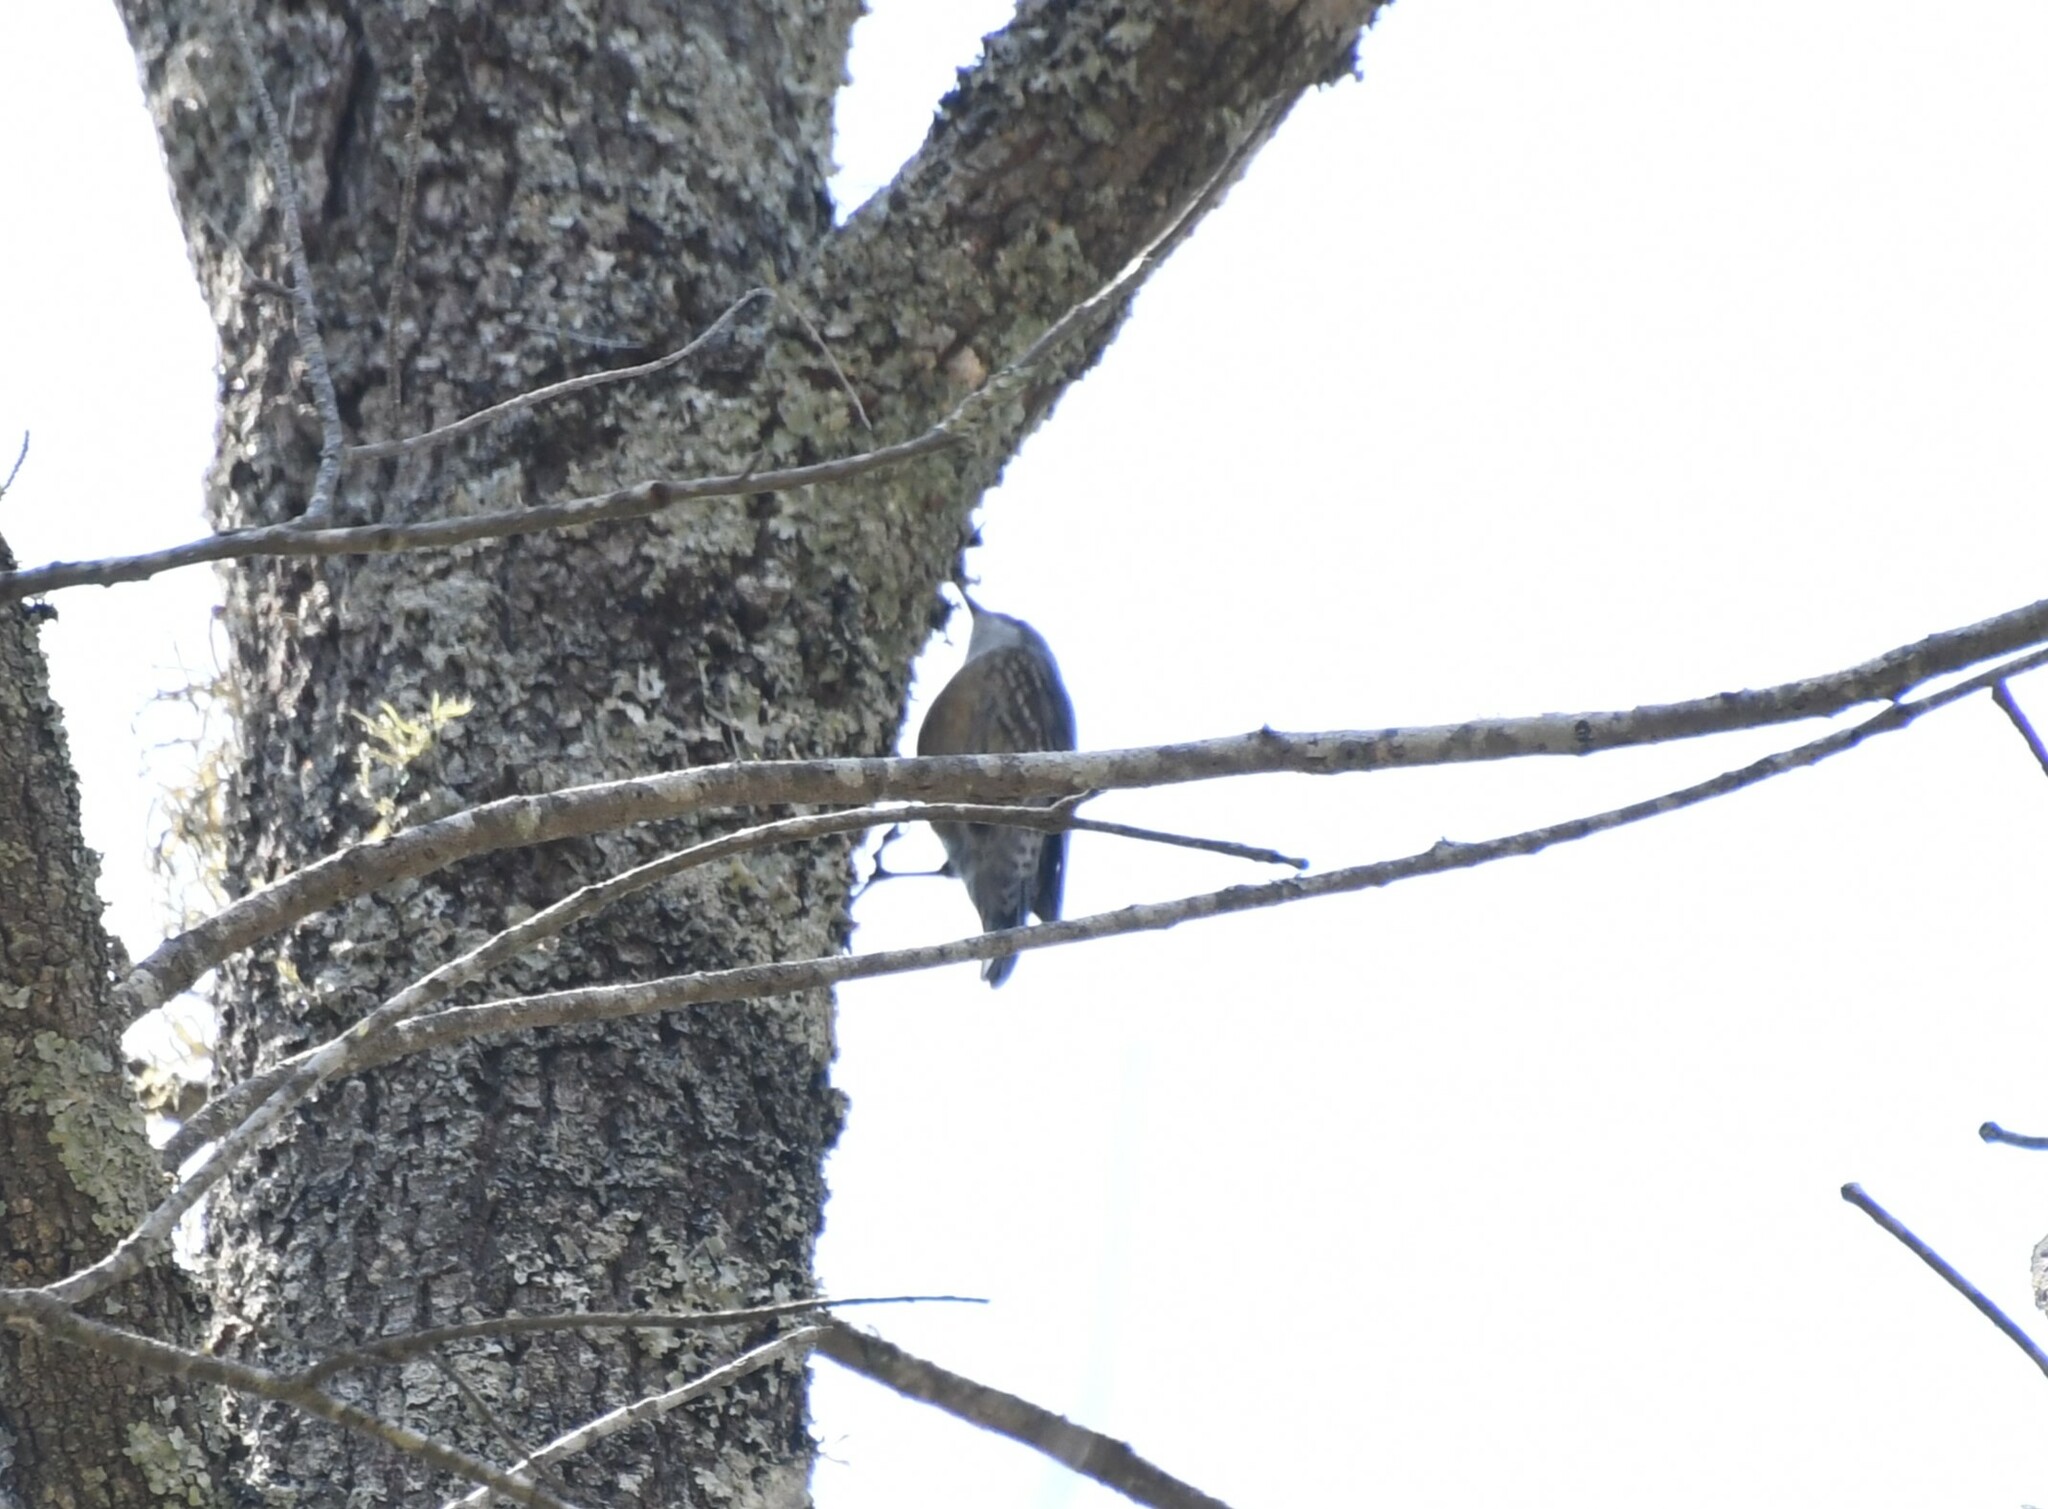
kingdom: Animalia
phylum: Chordata
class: Aves
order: Passeriformes
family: Climacteridae
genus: Cormobates
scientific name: Cormobates leucophaea
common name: White-throated treecreeper
